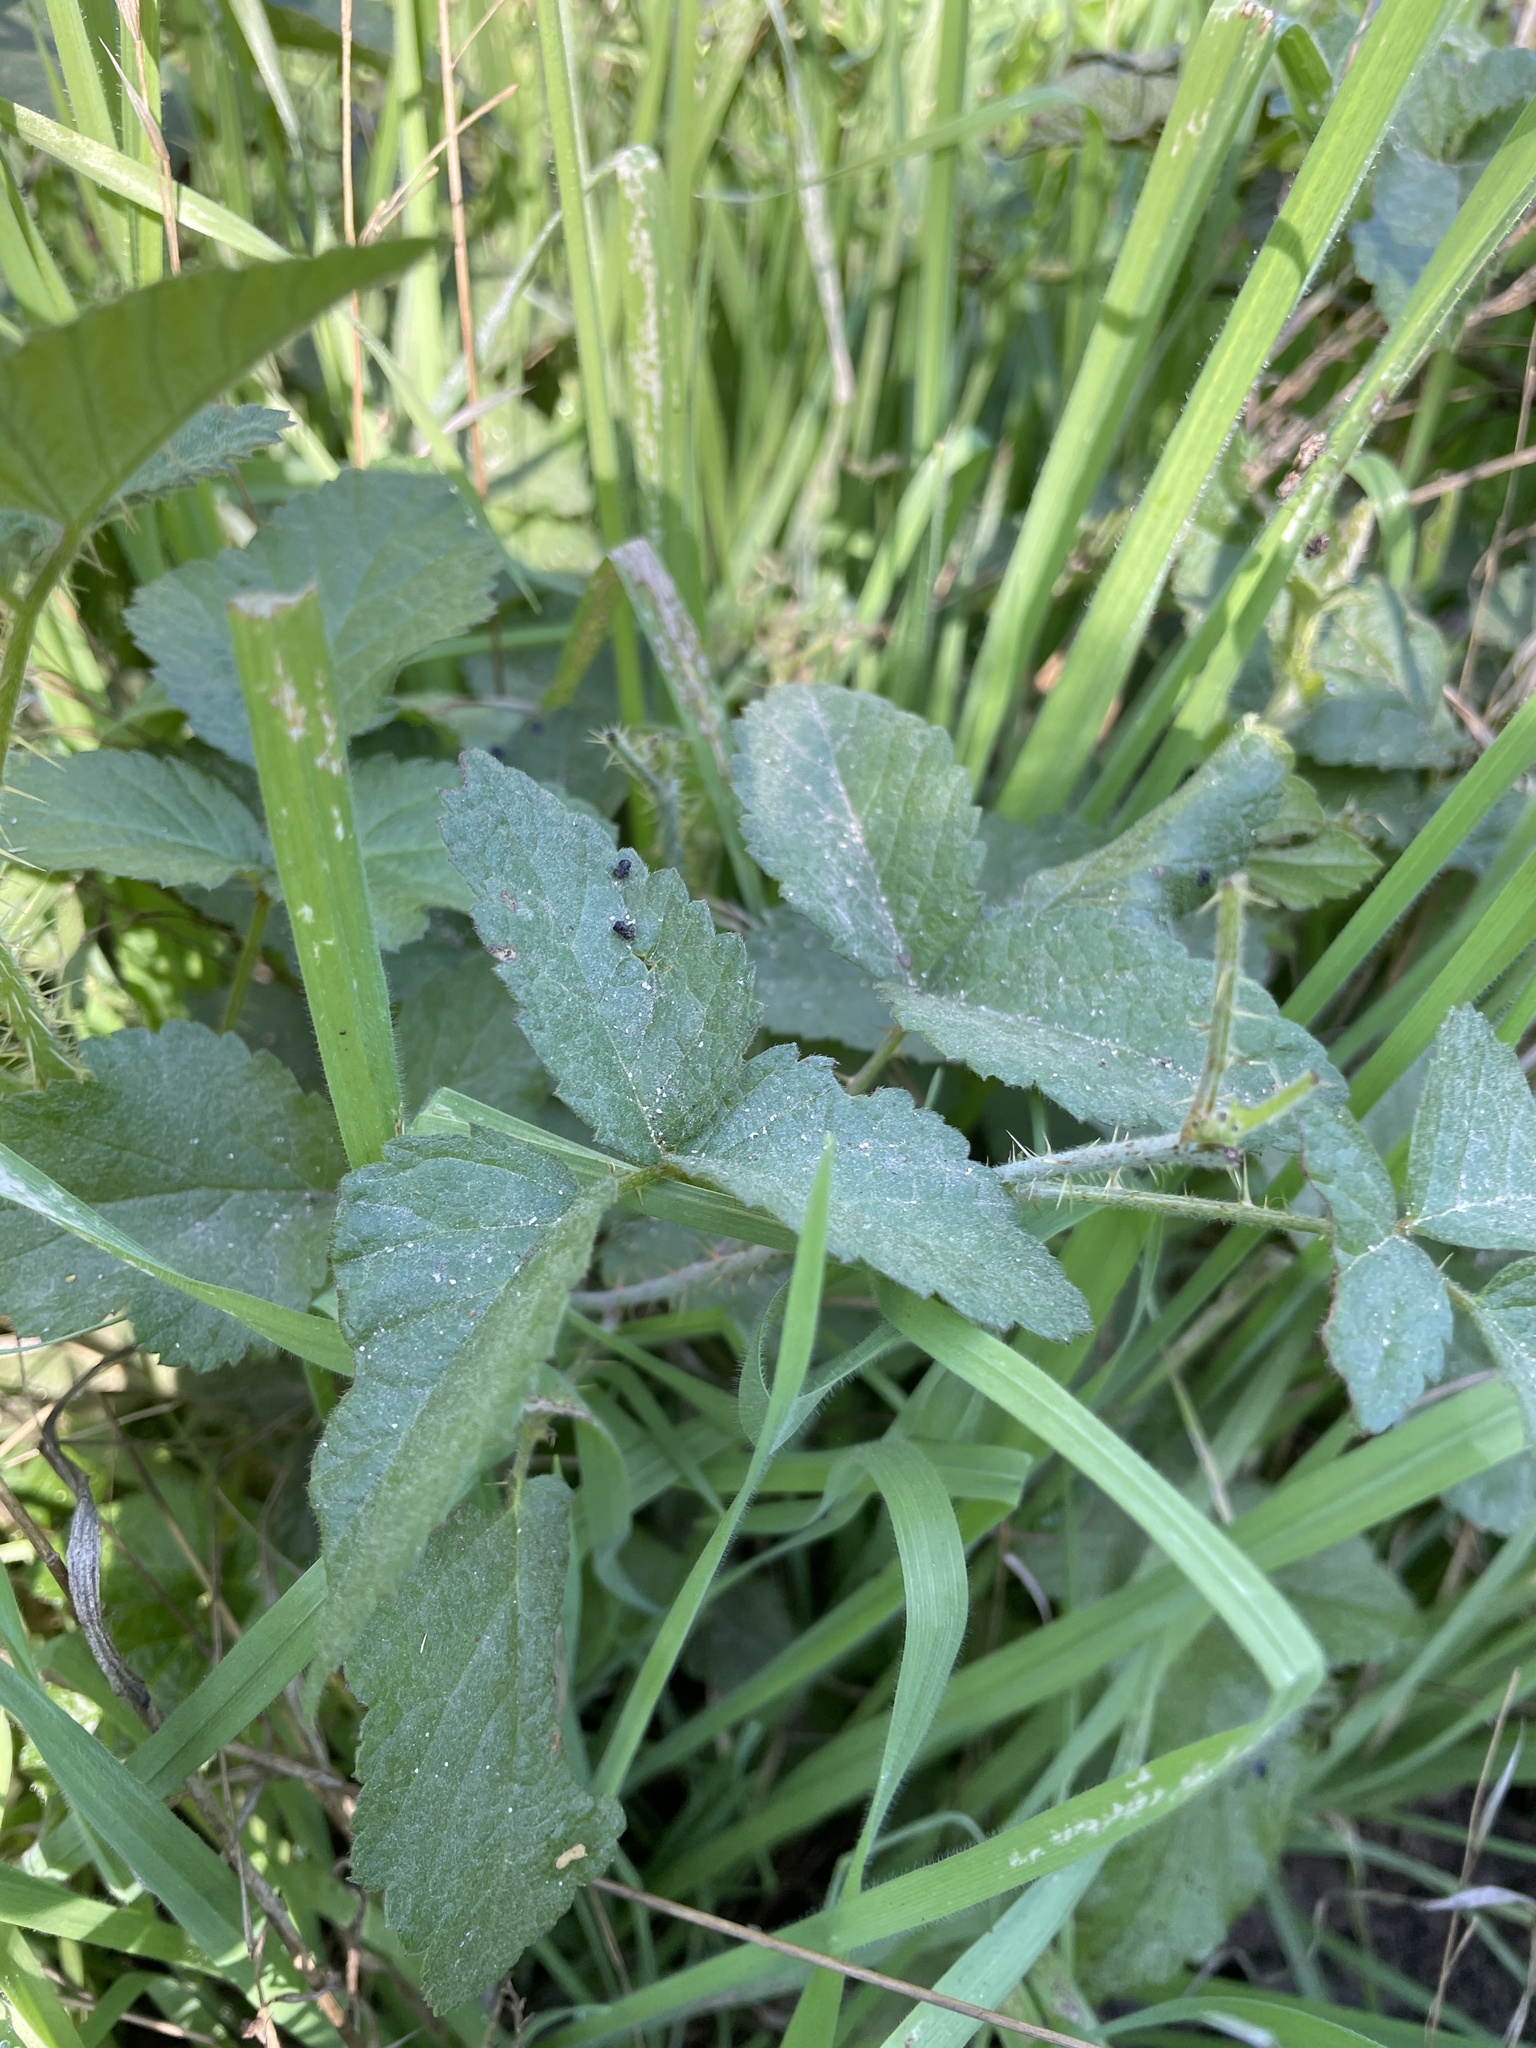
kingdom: Plantae
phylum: Tracheophyta
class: Magnoliopsida
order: Rosales
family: Rosaceae
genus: Rubus
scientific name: Rubus ursinus
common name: Pacific blackberry
